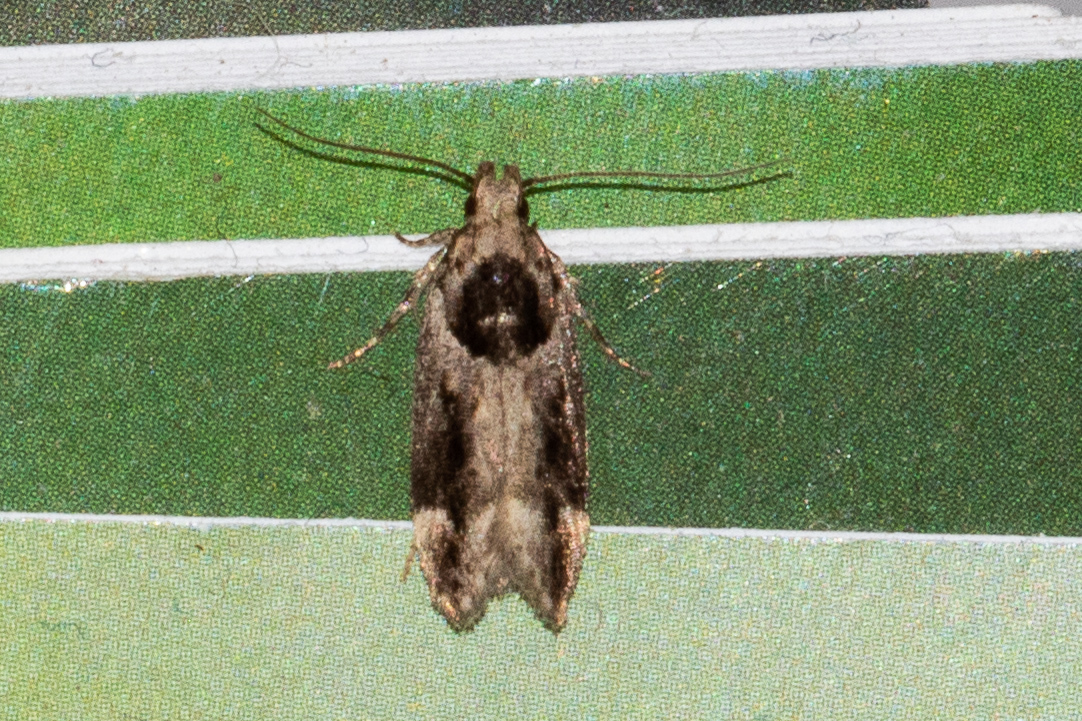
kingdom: Animalia
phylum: Arthropoda
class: Insecta
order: Lepidoptera
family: Gelechiidae
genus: Pseudochelaria
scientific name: Pseudochelaria walsinghami
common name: Walsingham's moth
